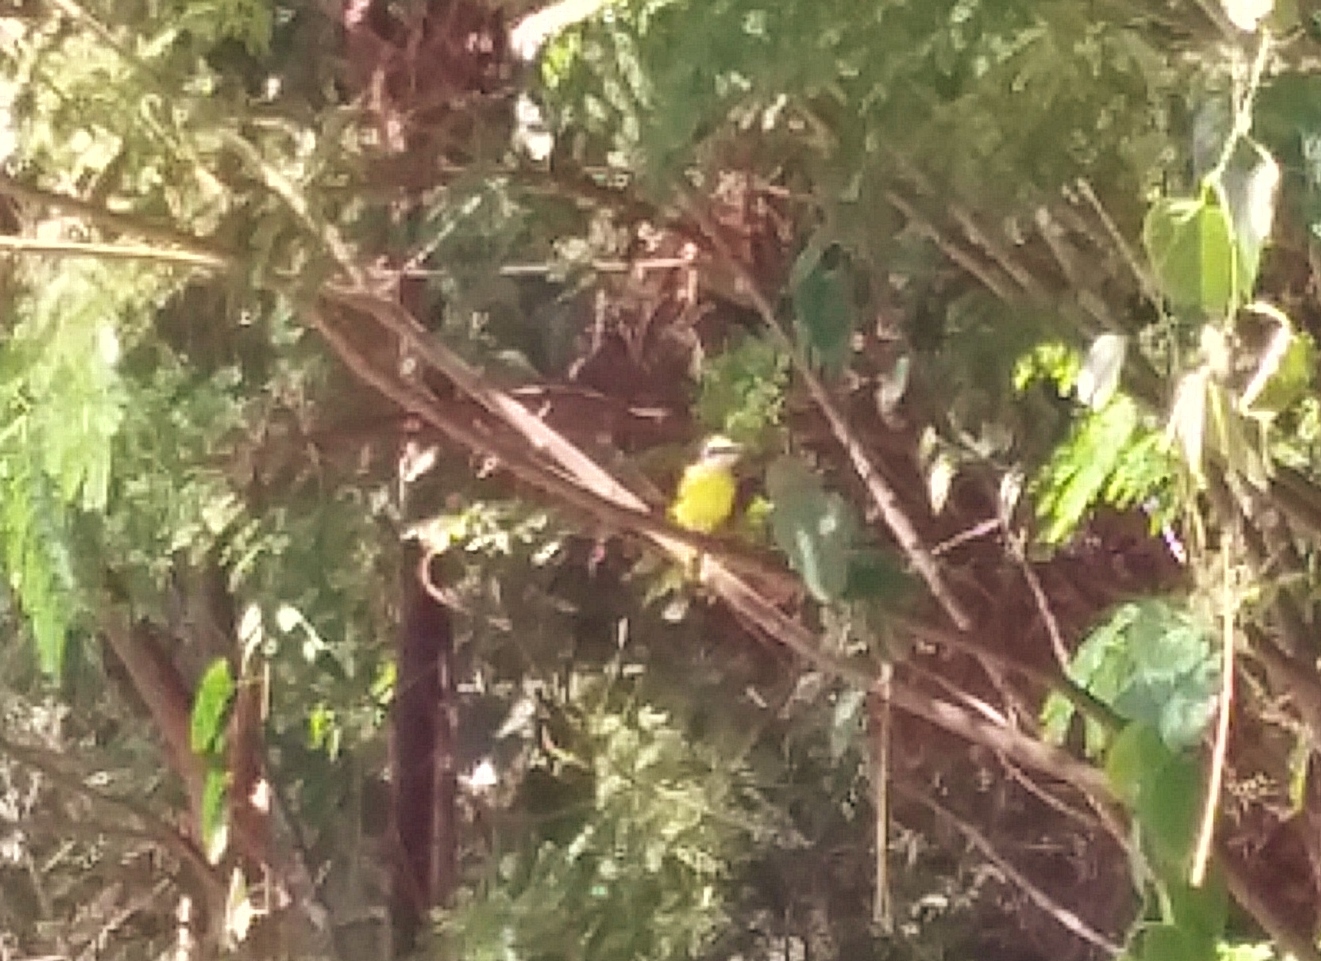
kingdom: Animalia
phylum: Chordata
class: Aves
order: Passeriformes
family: Tyrannidae
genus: Pitangus
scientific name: Pitangus sulphuratus
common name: Great kiskadee
